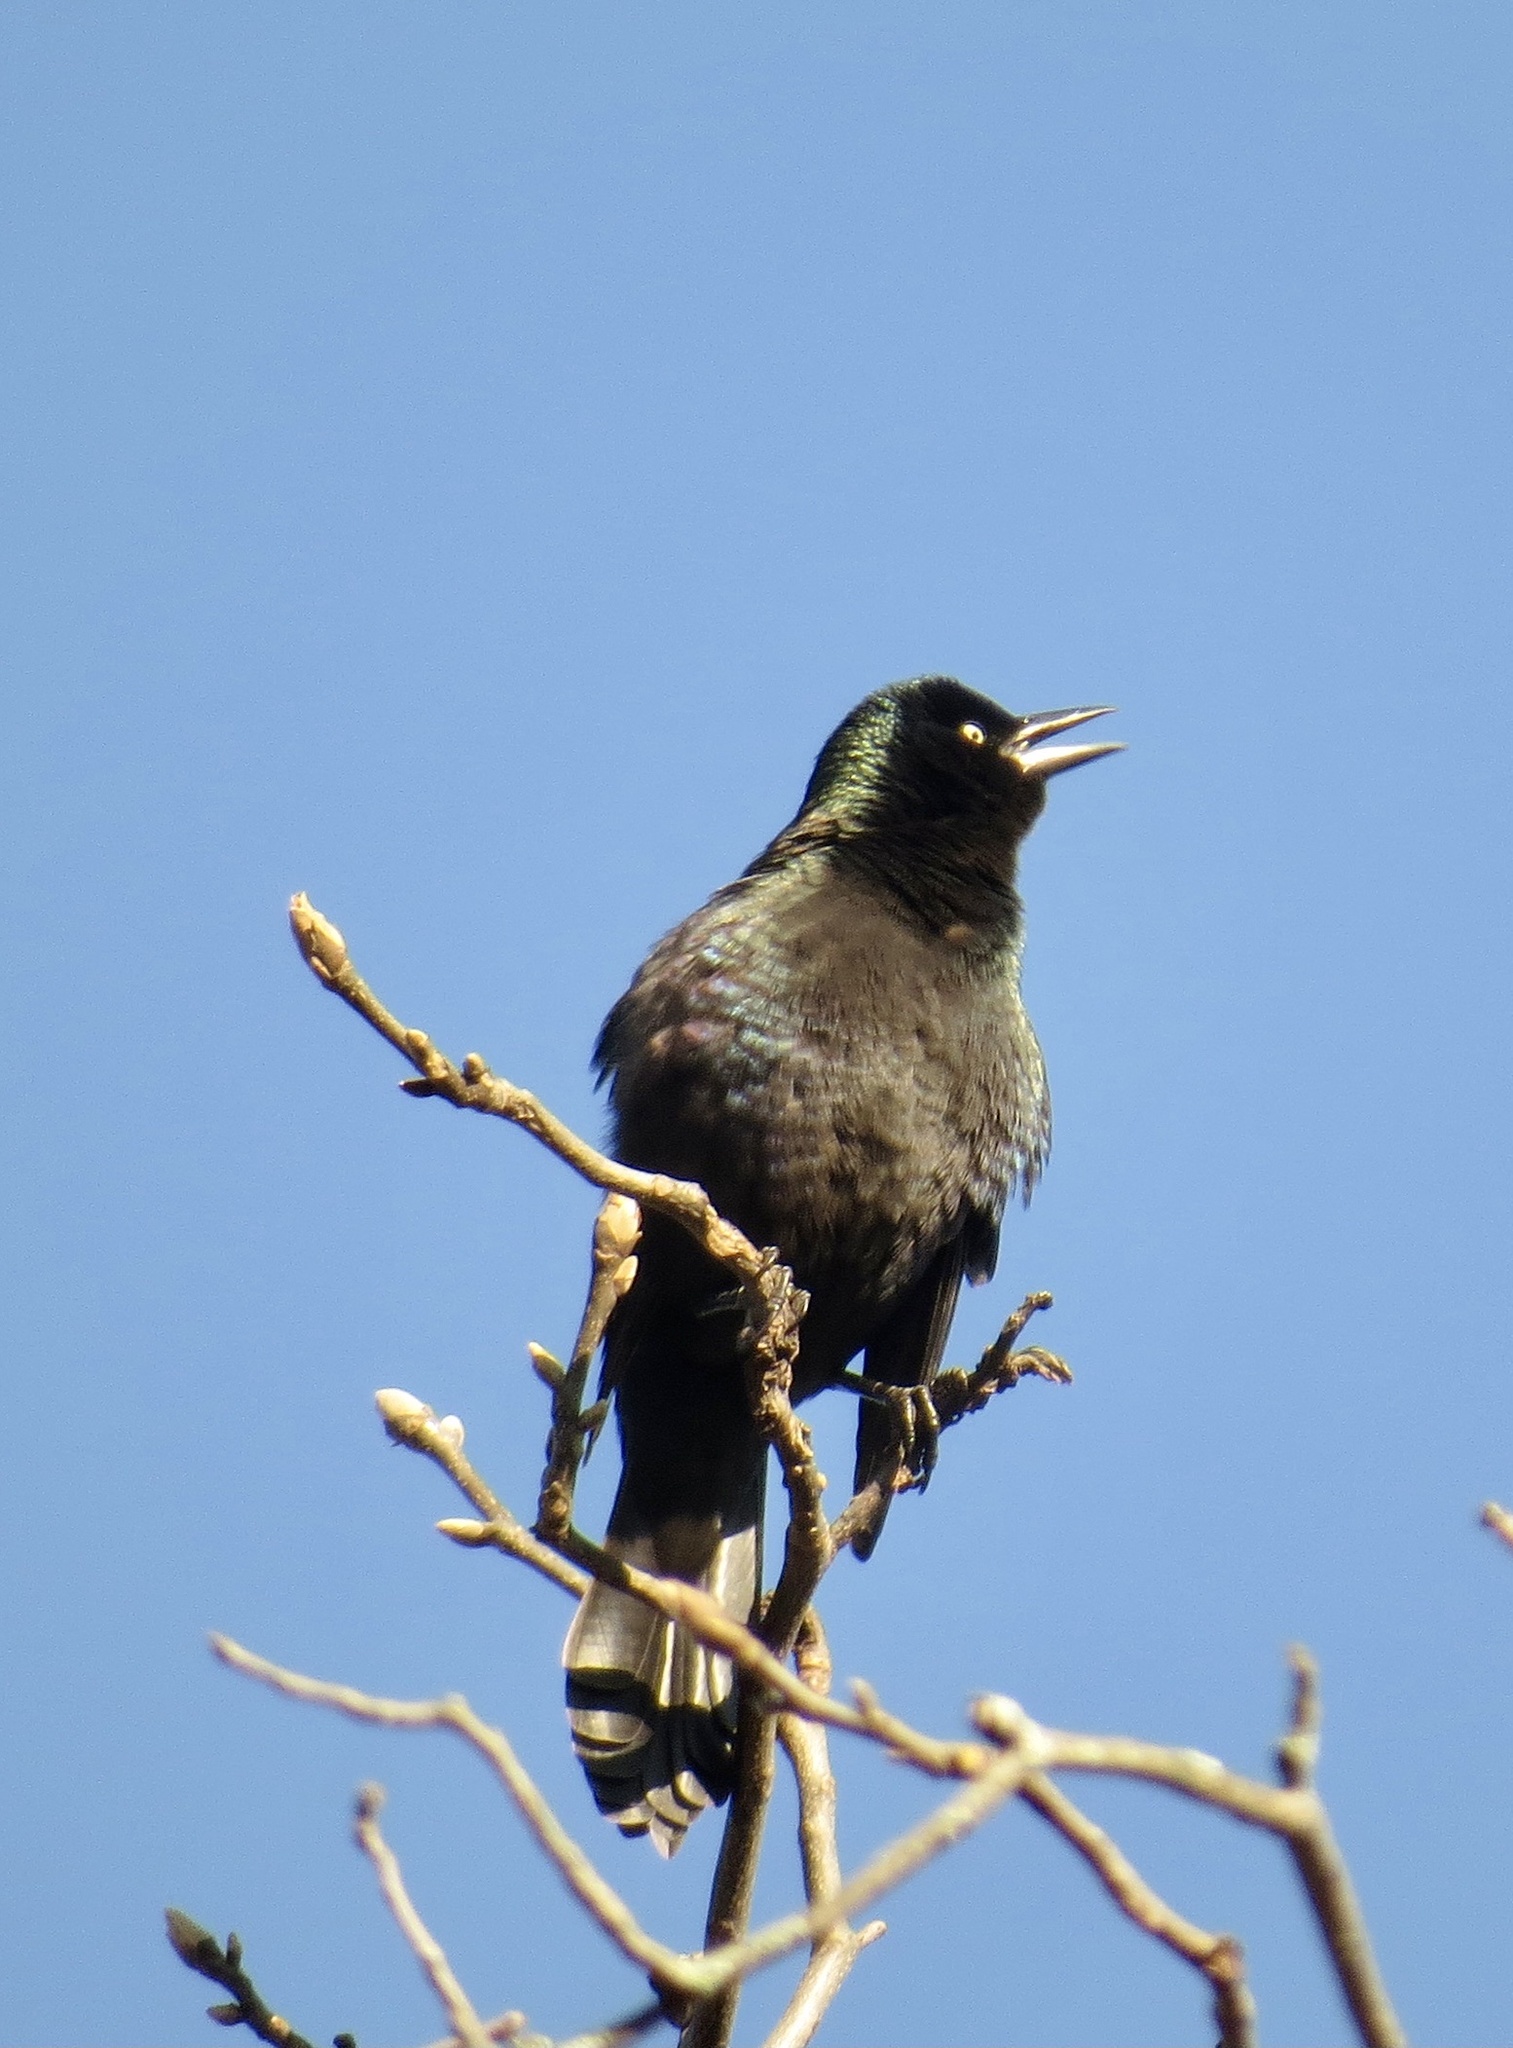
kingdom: Animalia
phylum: Chordata
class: Aves
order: Passeriformes
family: Icteridae
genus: Quiscalus
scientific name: Quiscalus quiscula
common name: Common grackle
